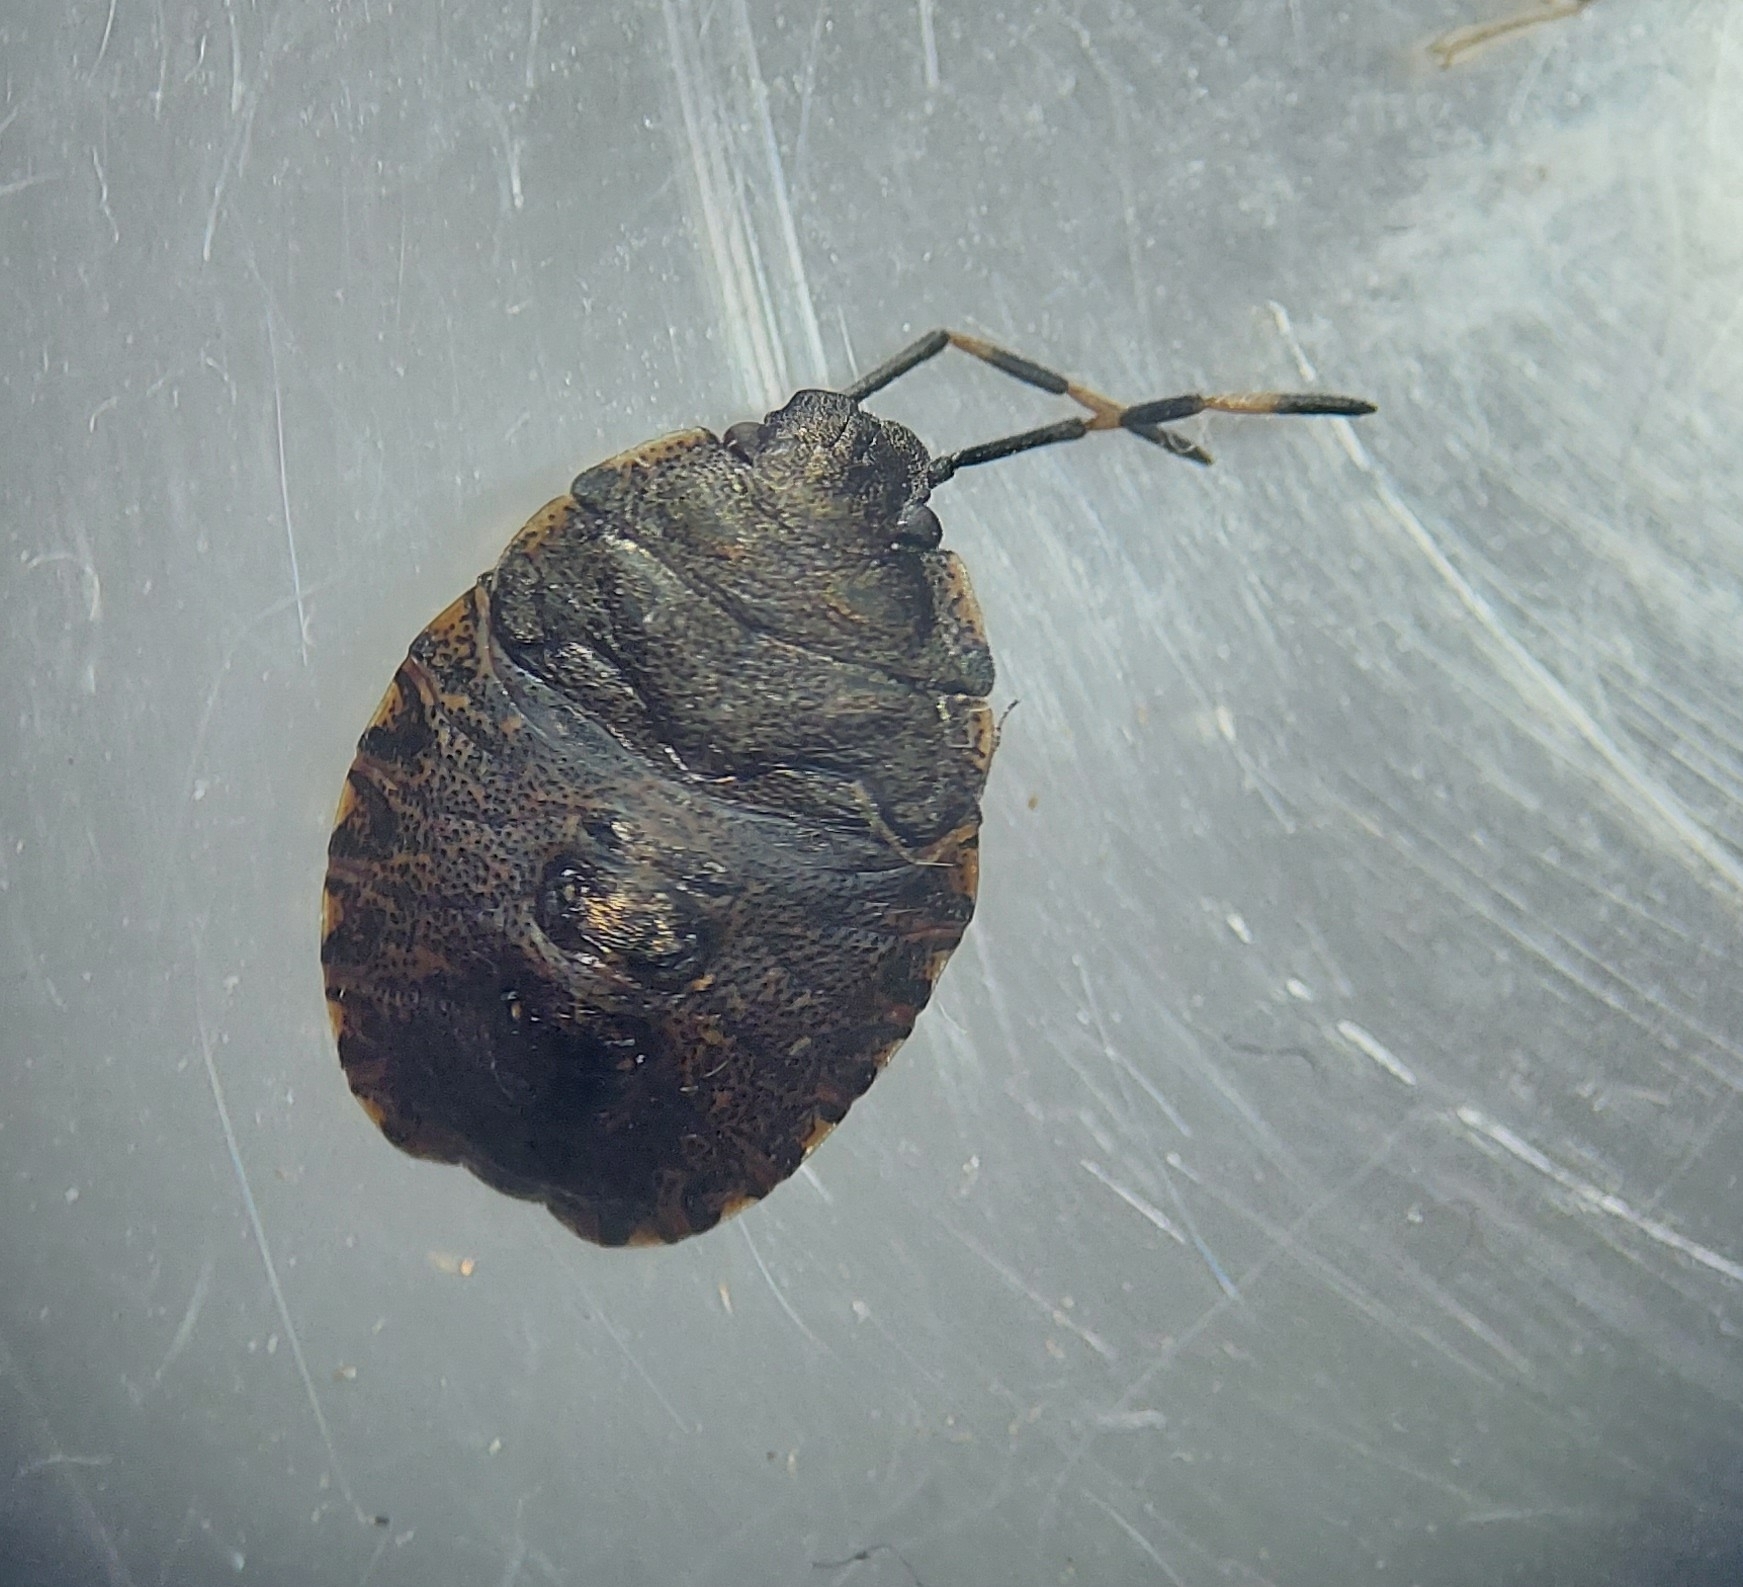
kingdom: Animalia
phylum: Arthropoda
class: Insecta
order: Hemiptera
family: Pentatomidae
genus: Rhaphigaster
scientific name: Rhaphigaster nebulosa
